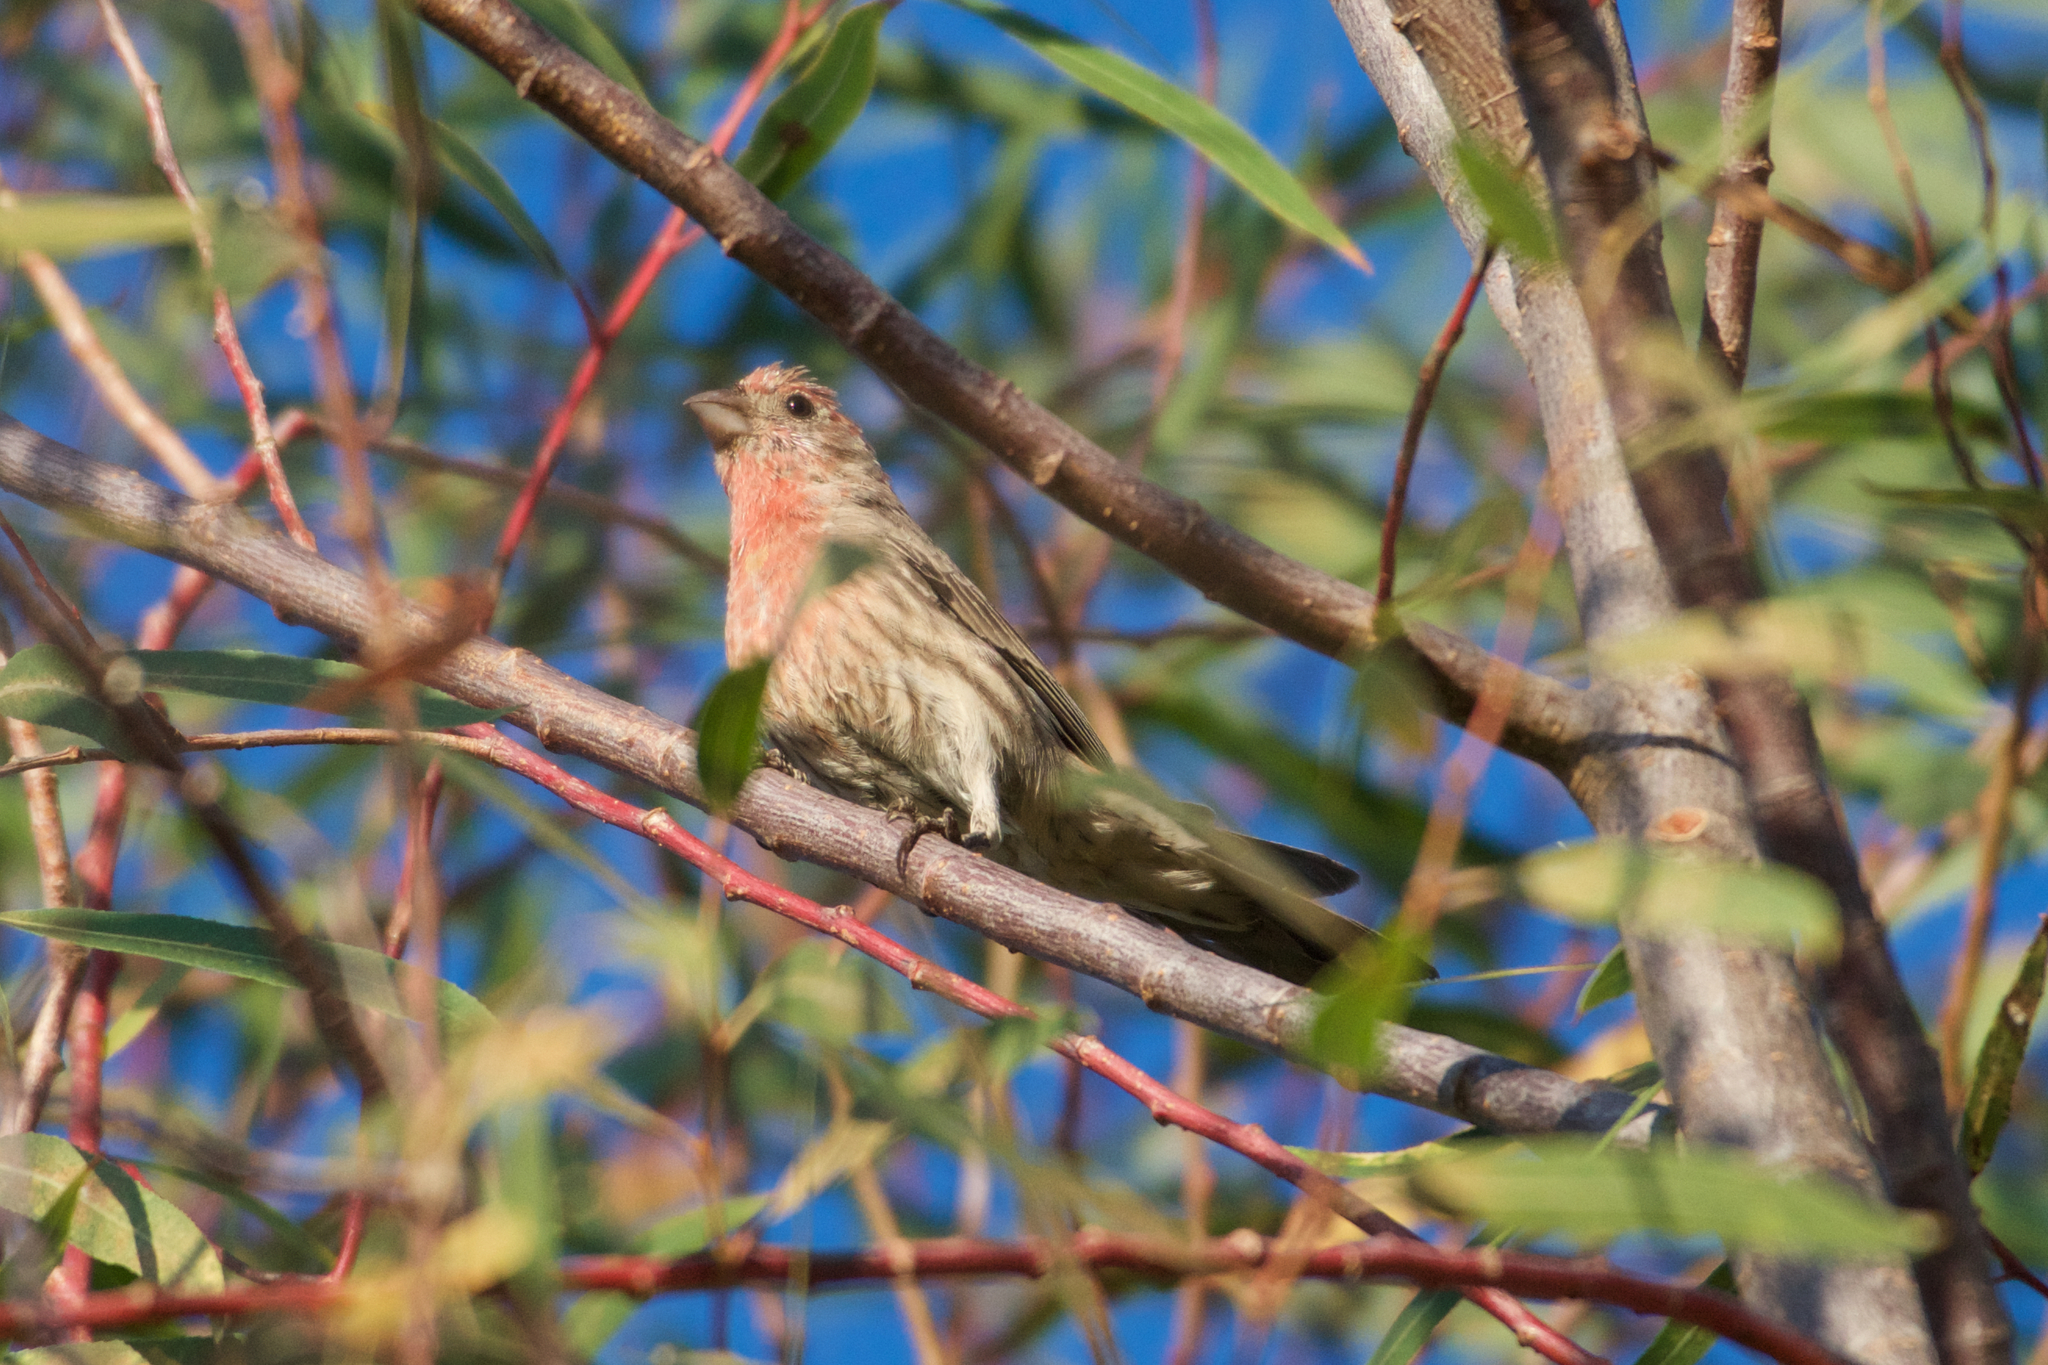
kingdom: Animalia
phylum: Chordata
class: Aves
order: Passeriformes
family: Fringillidae
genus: Haemorhous
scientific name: Haemorhous mexicanus
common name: House finch
